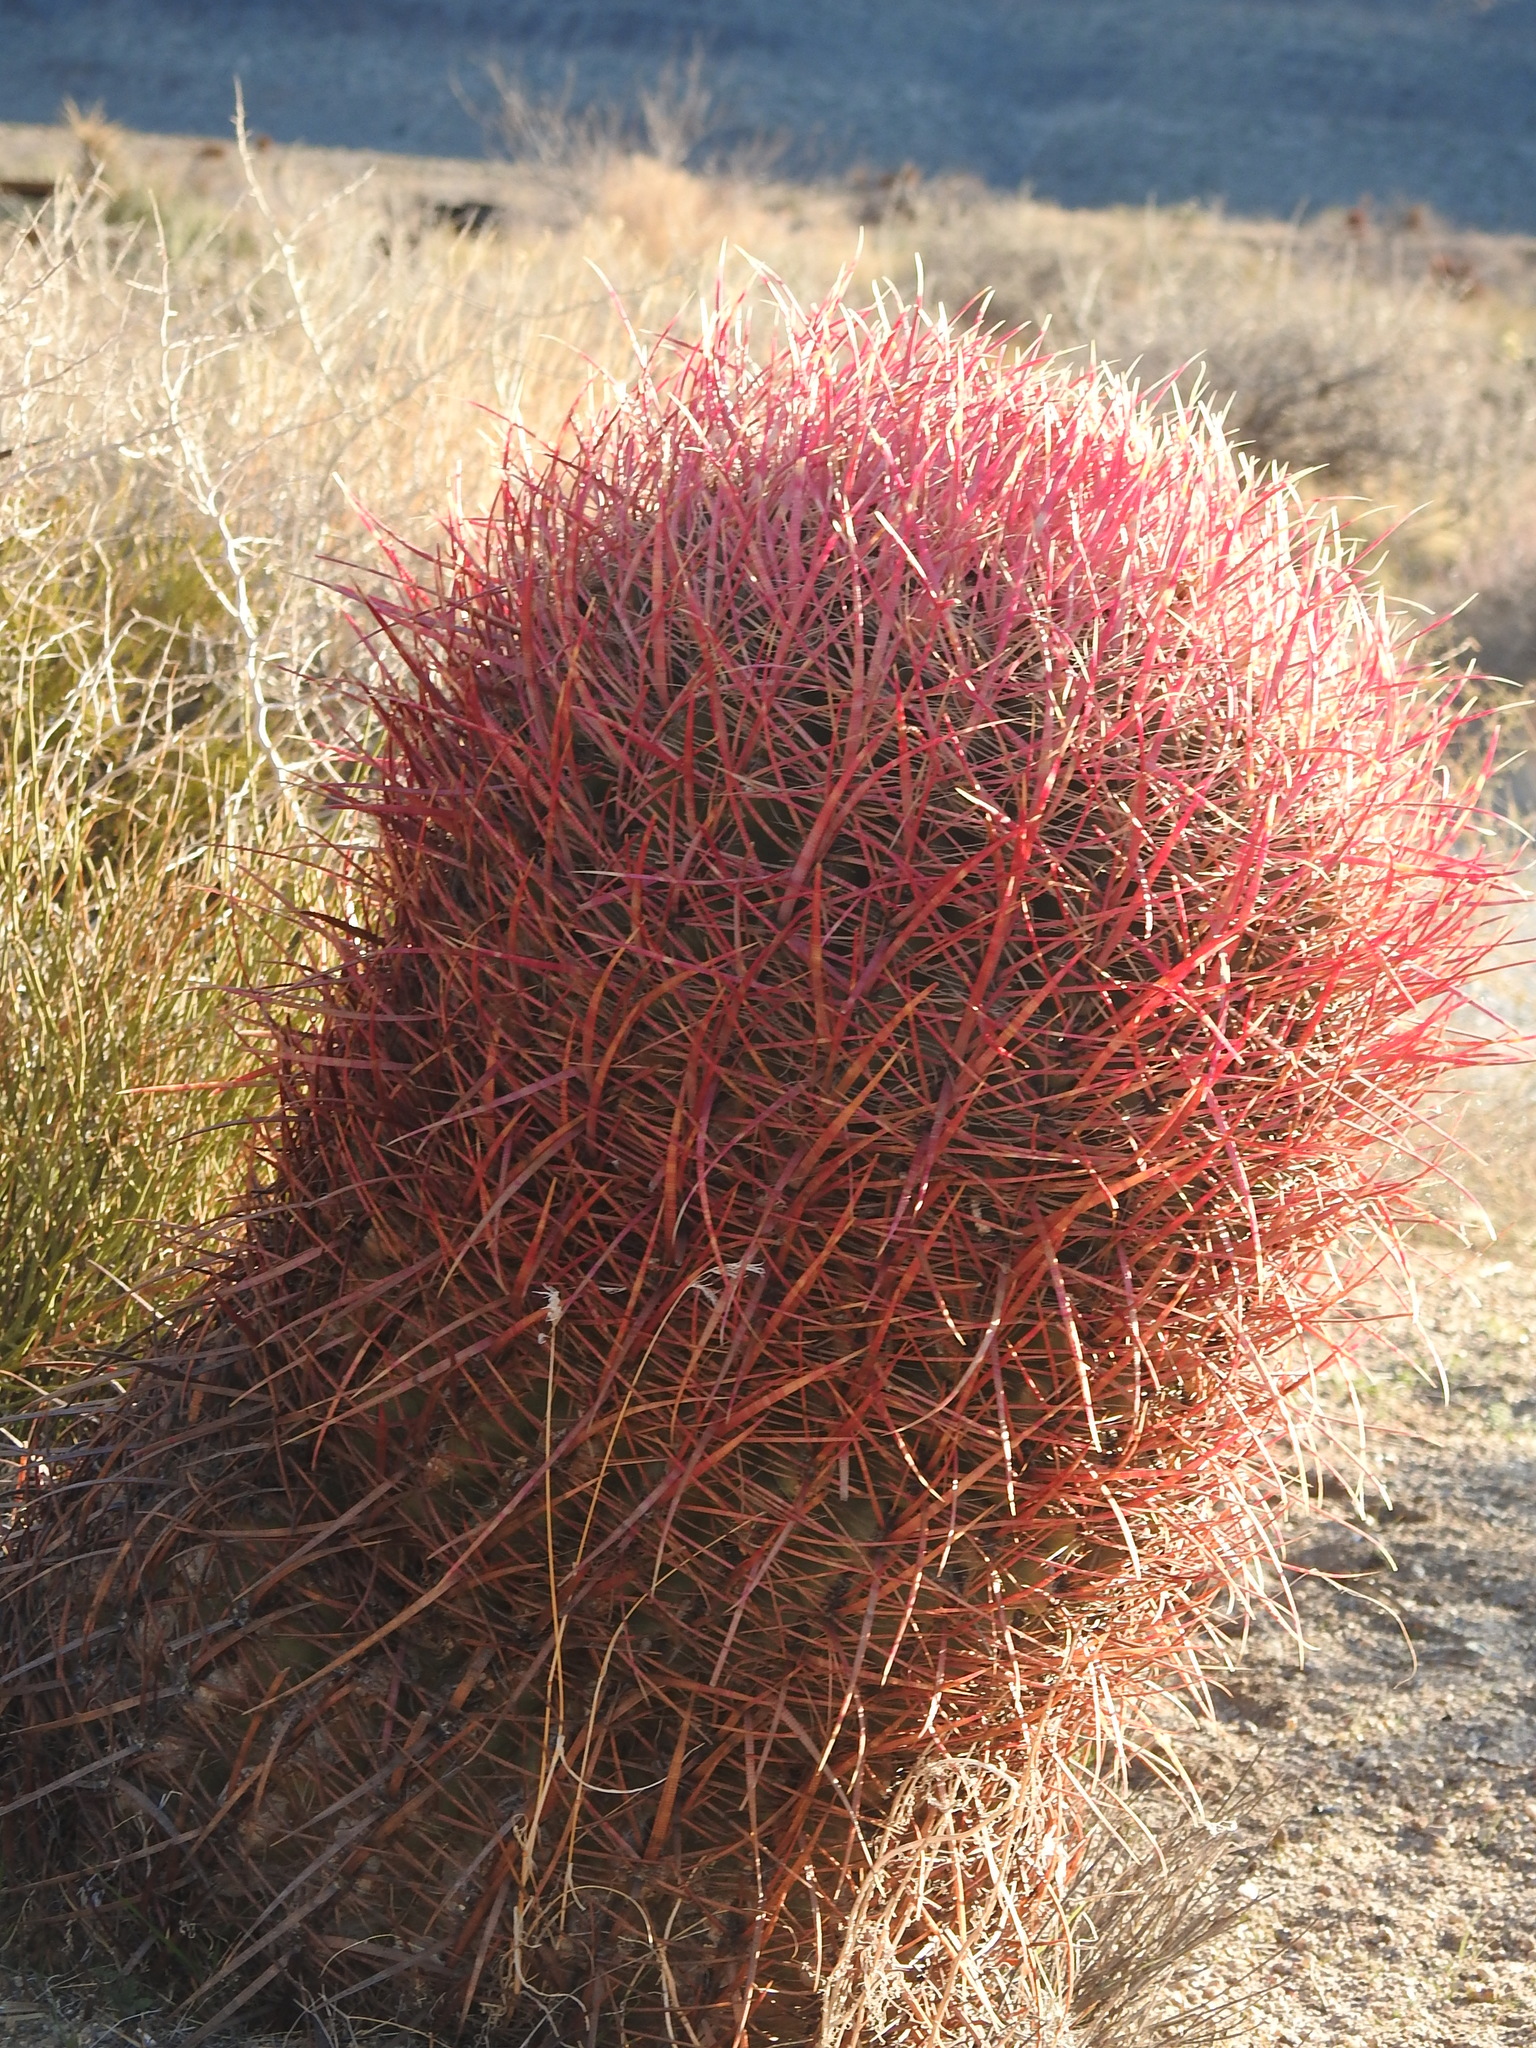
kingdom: Plantae
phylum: Tracheophyta
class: Magnoliopsida
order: Caryophyllales
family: Cactaceae
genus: Ferocactus
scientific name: Ferocactus cylindraceus
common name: California barrel cactus
